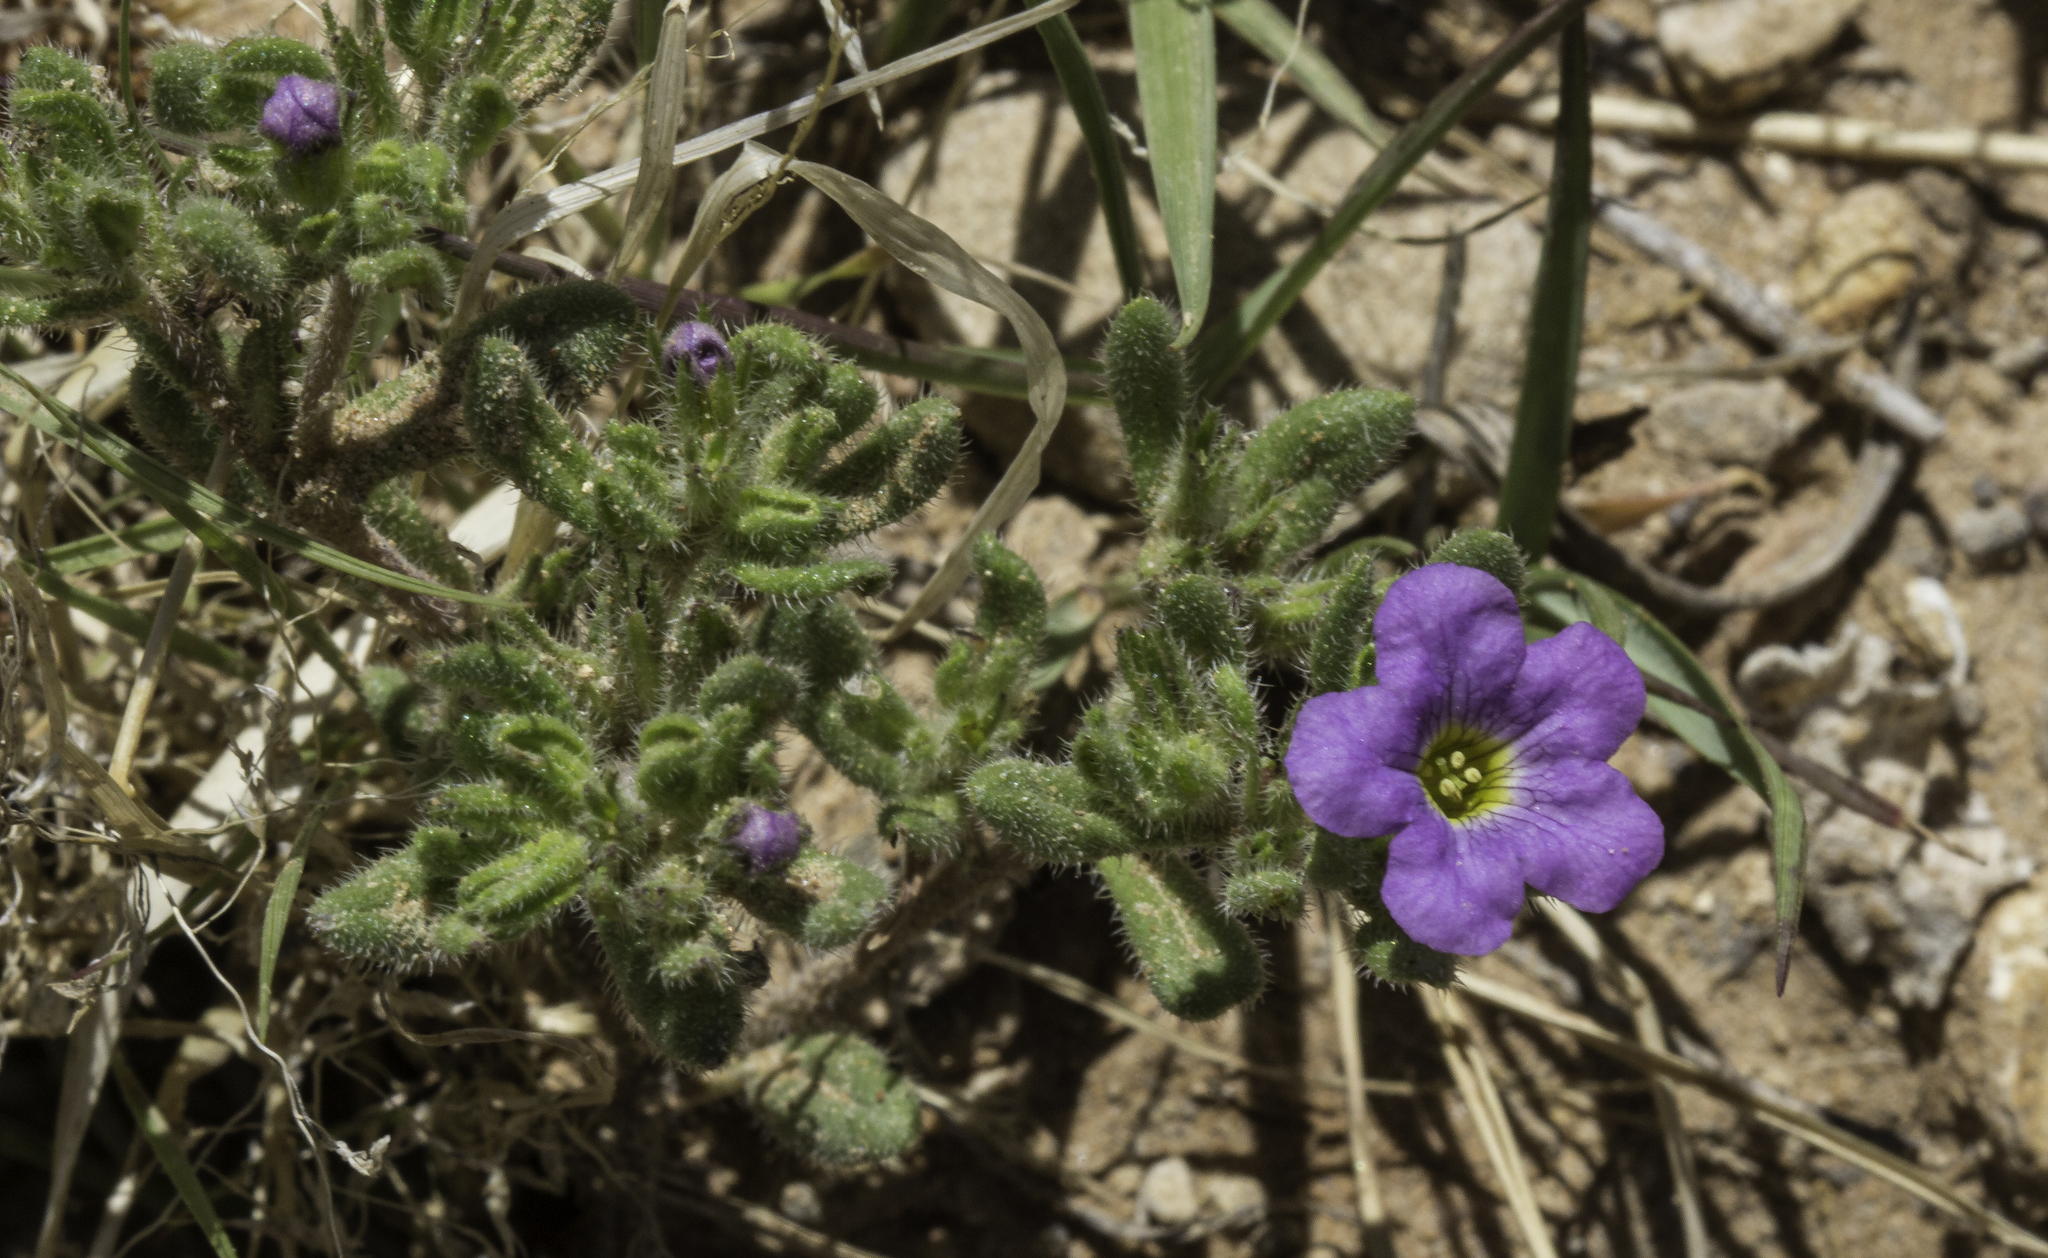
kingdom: Plantae
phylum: Tracheophyta
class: Magnoliopsida
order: Boraginales
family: Namaceae
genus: Nama
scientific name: Nama hispida
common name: Bristly nama
